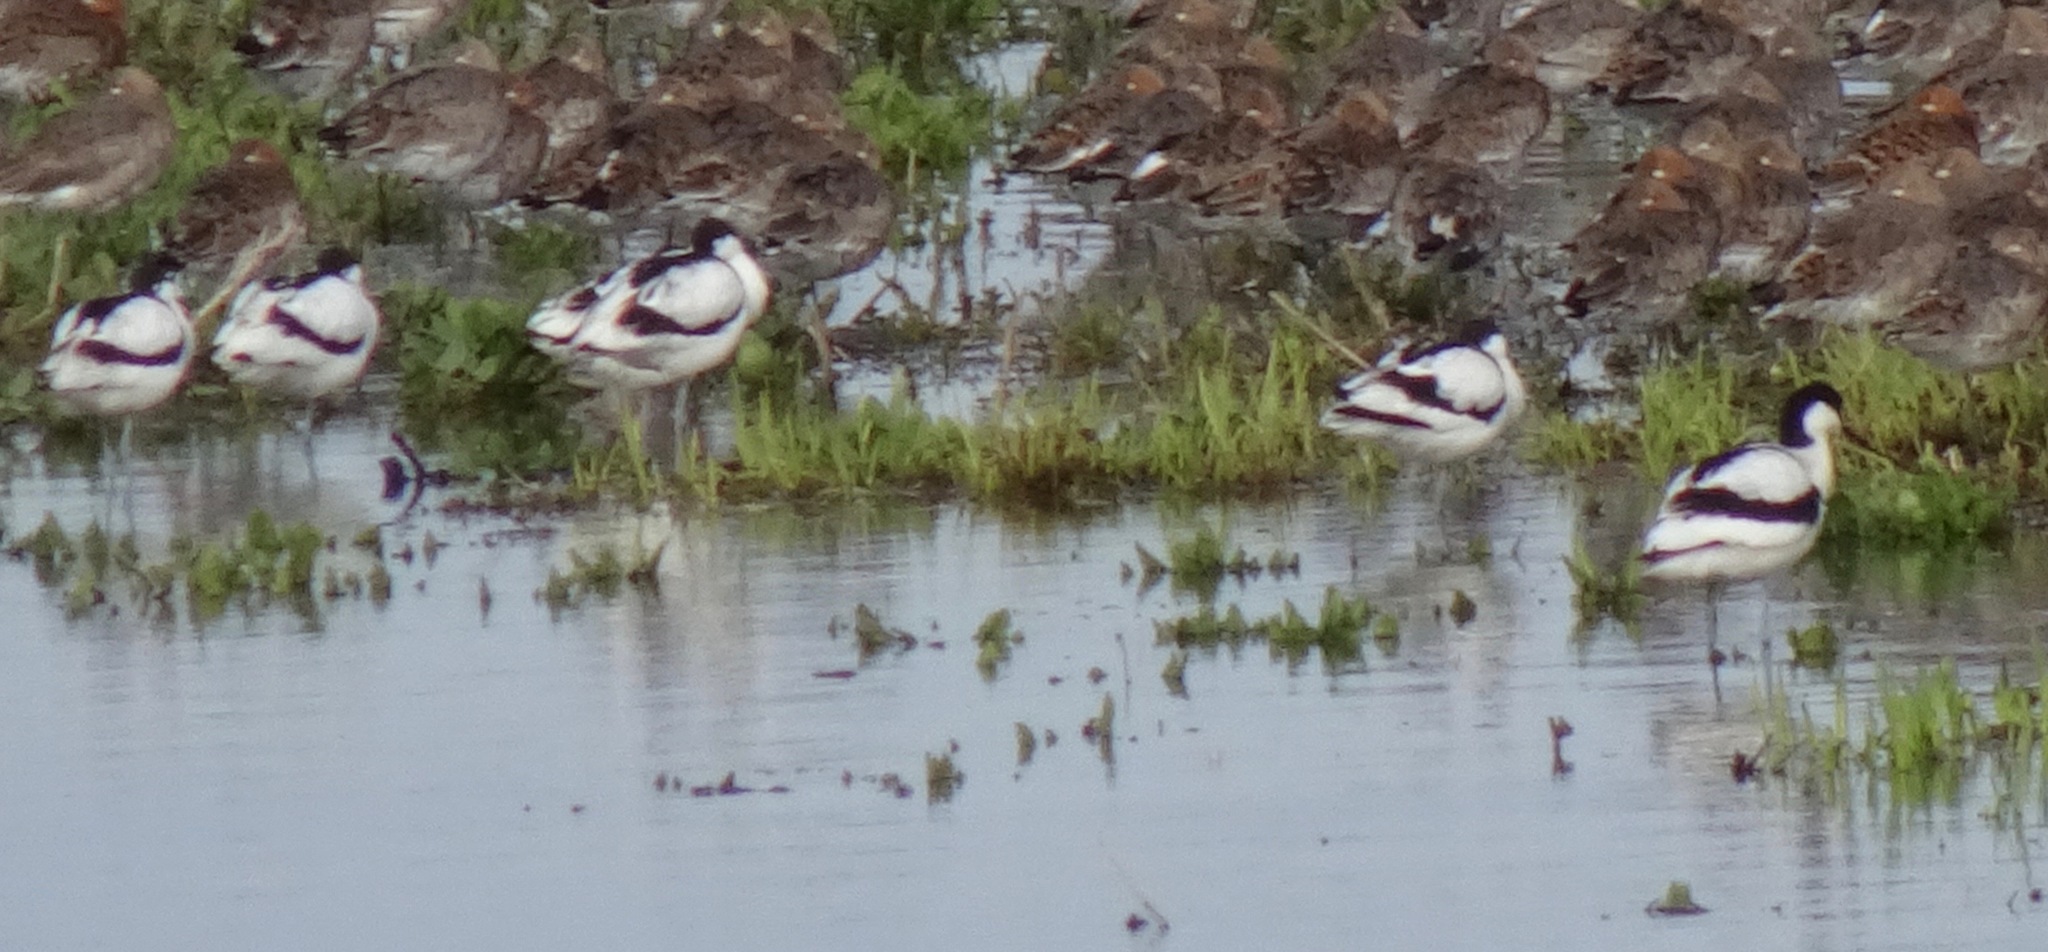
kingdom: Animalia
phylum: Chordata
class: Aves
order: Charadriiformes
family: Recurvirostridae
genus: Recurvirostra
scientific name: Recurvirostra avosetta
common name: Pied avocet
